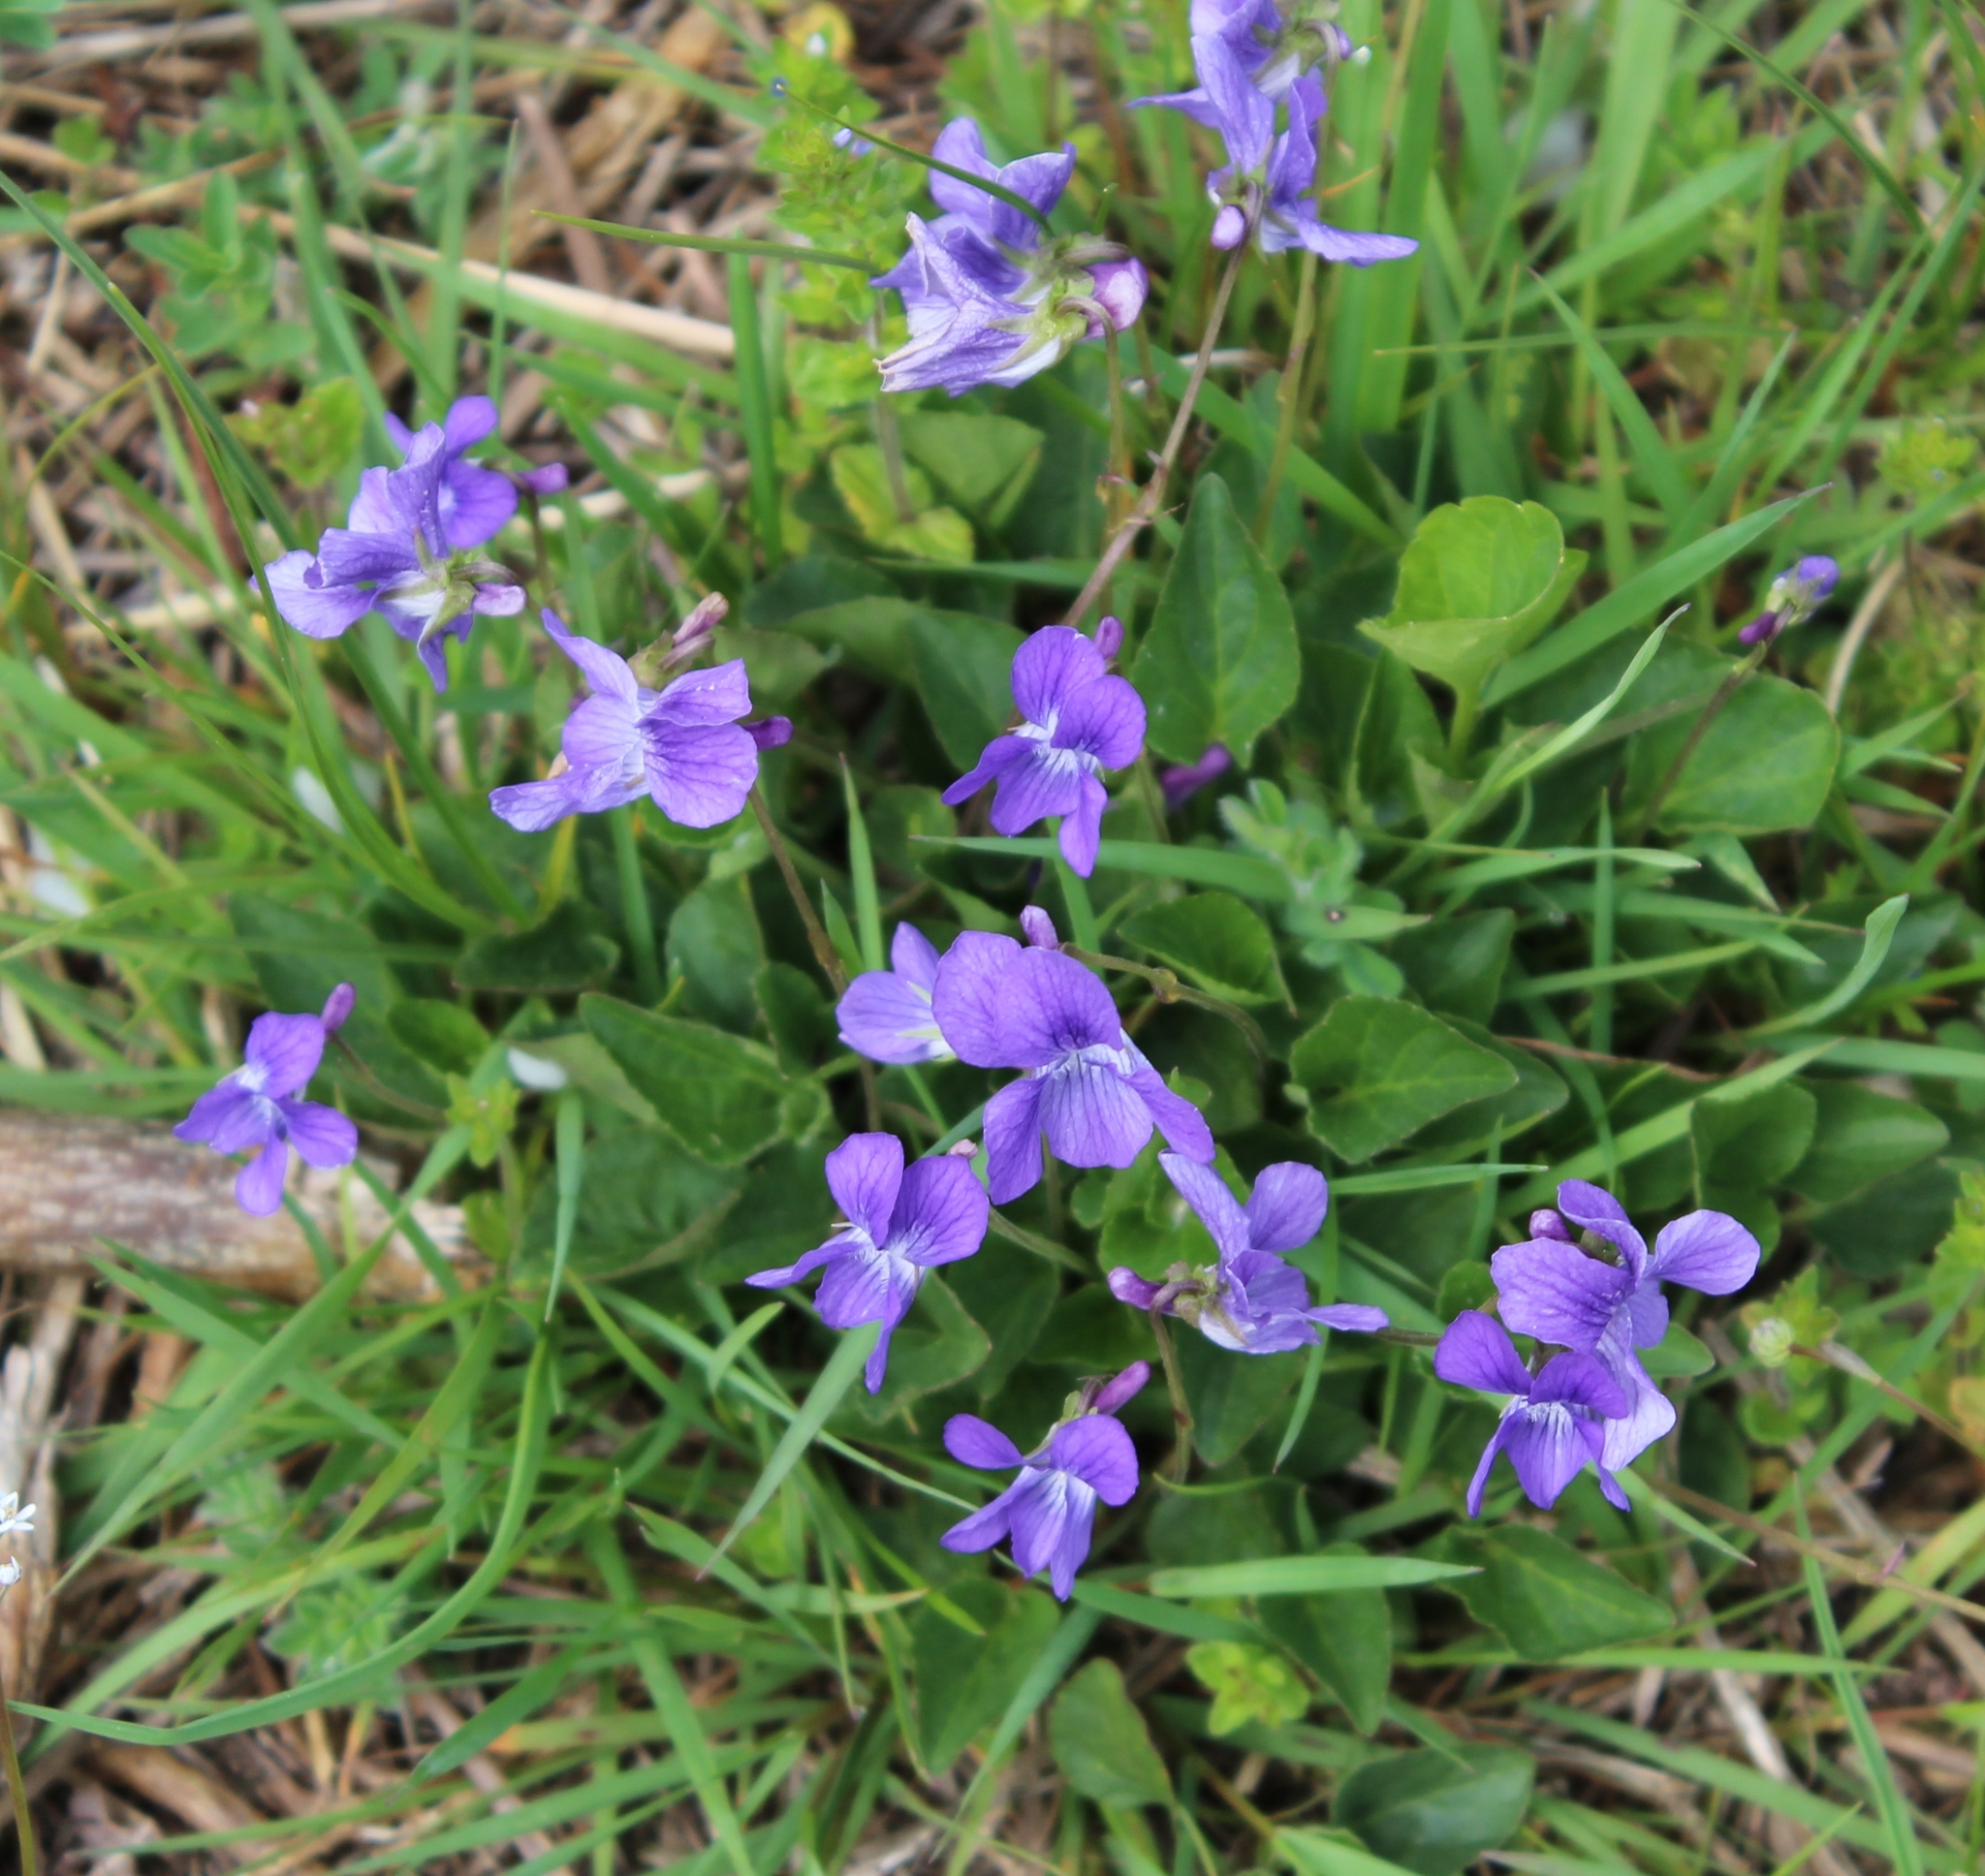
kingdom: Plantae
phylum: Tracheophyta
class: Magnoliopsida
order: Malpighiales
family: Violaceae
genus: Viola
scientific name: Viola adunca
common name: Sand violet
